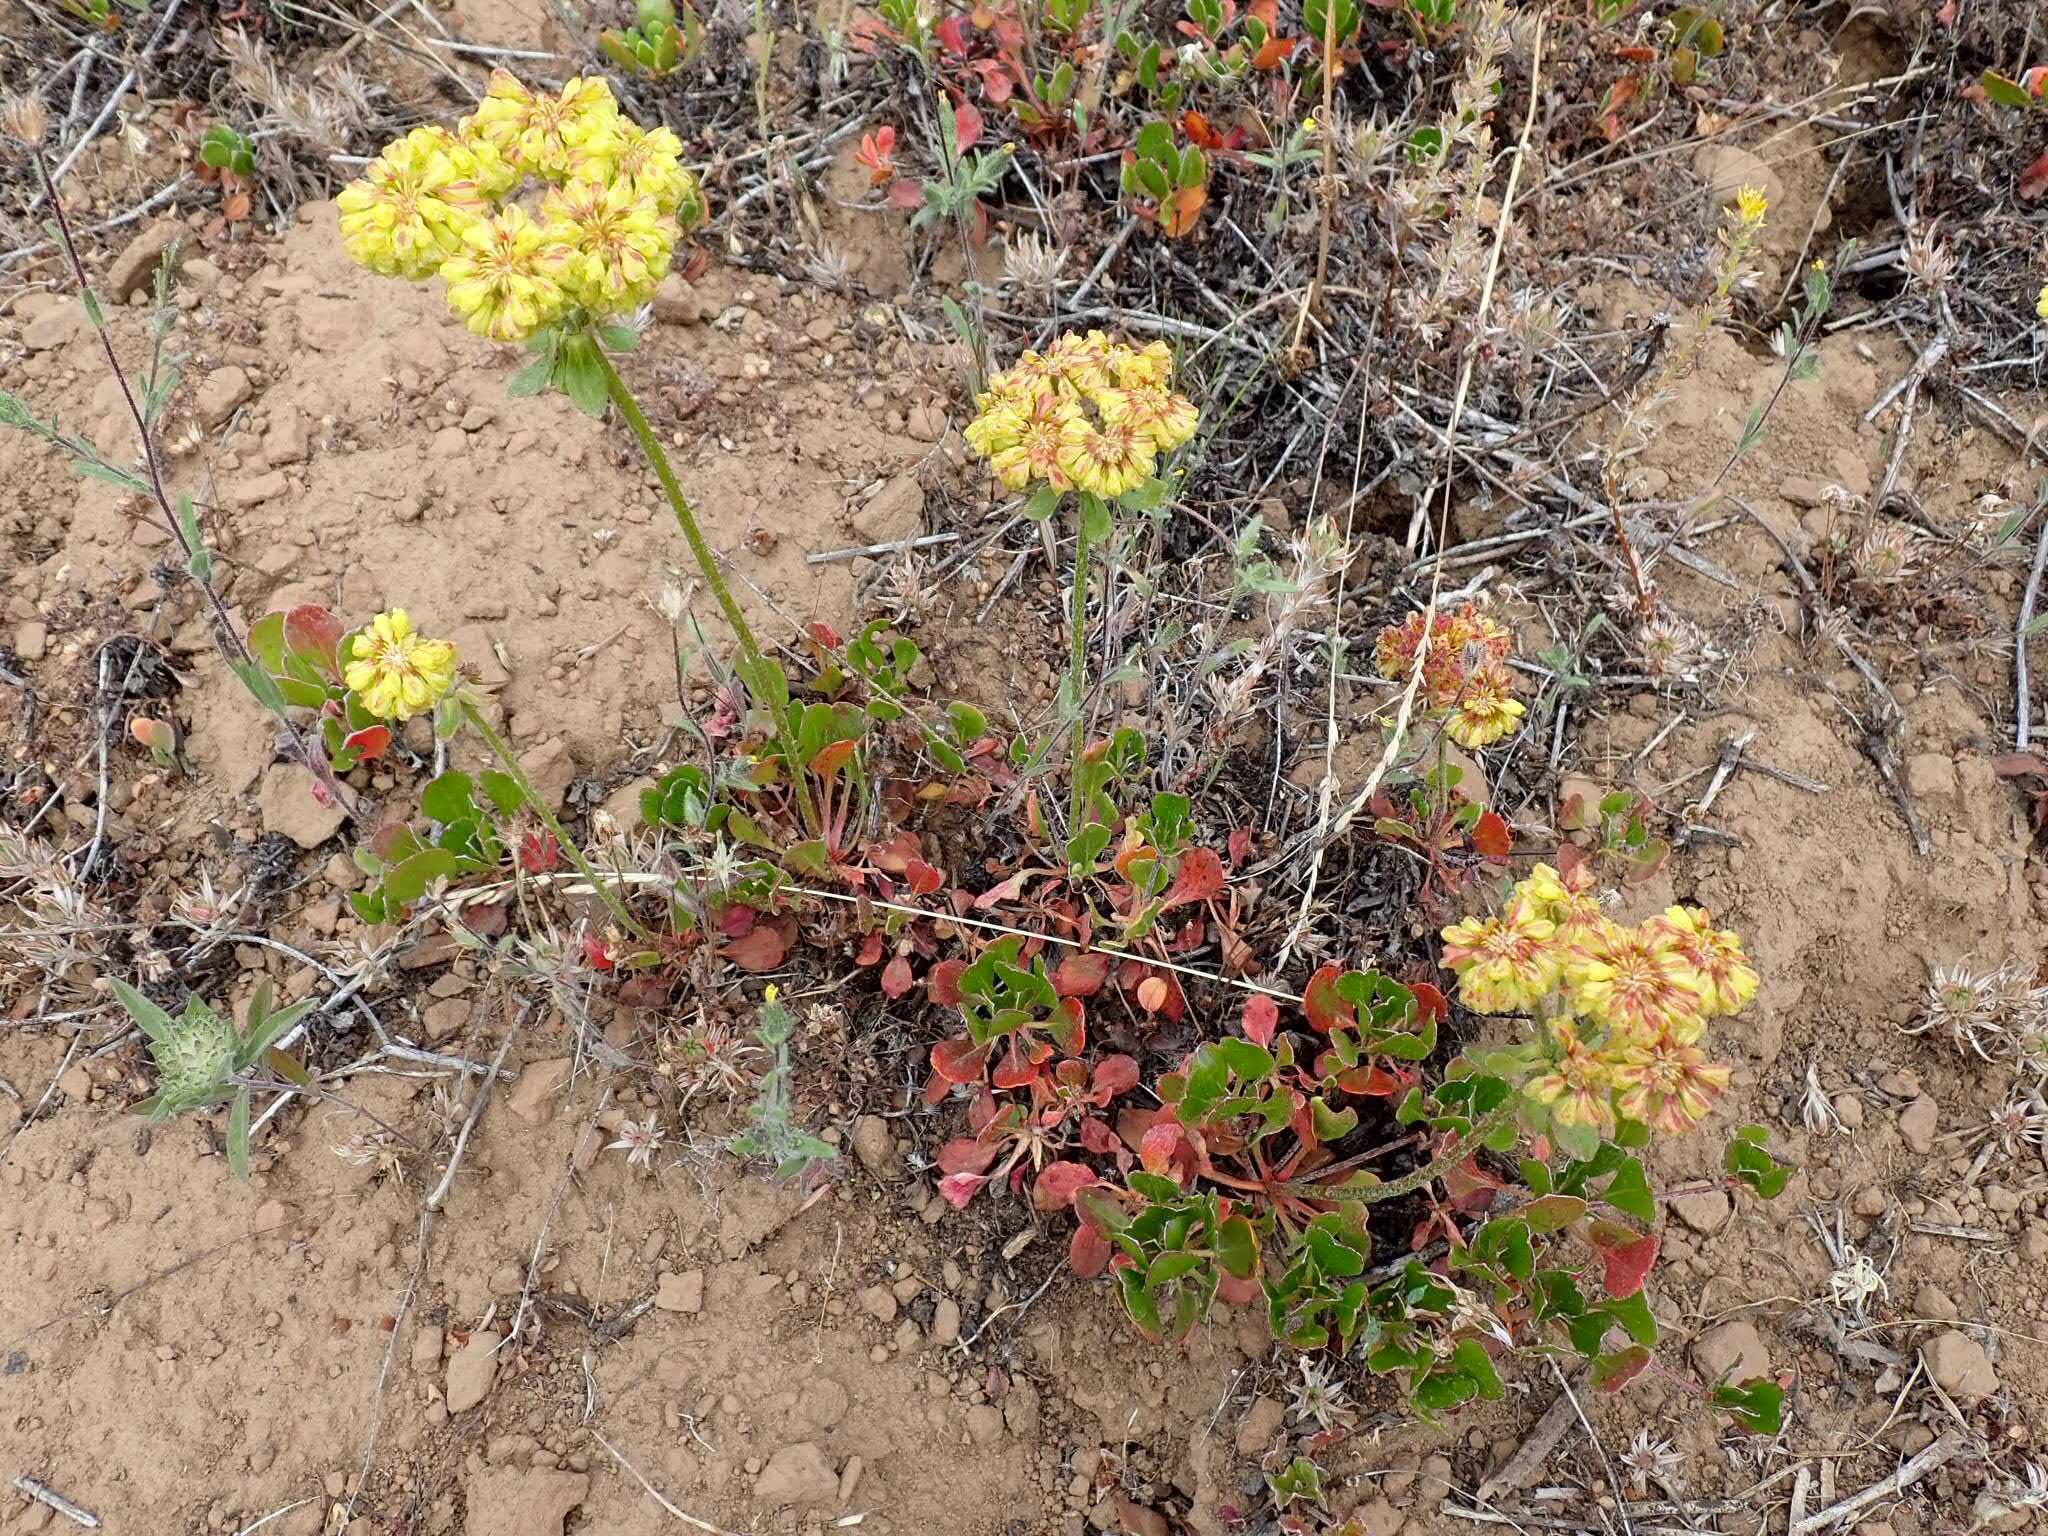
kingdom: Plantae
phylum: Tracheophyta
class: Magnoliopsida
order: Caryophyllales
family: Polygonaceae
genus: Eriogonum
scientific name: Eriogonum umbellatum
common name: Sulfur-buckwheat
